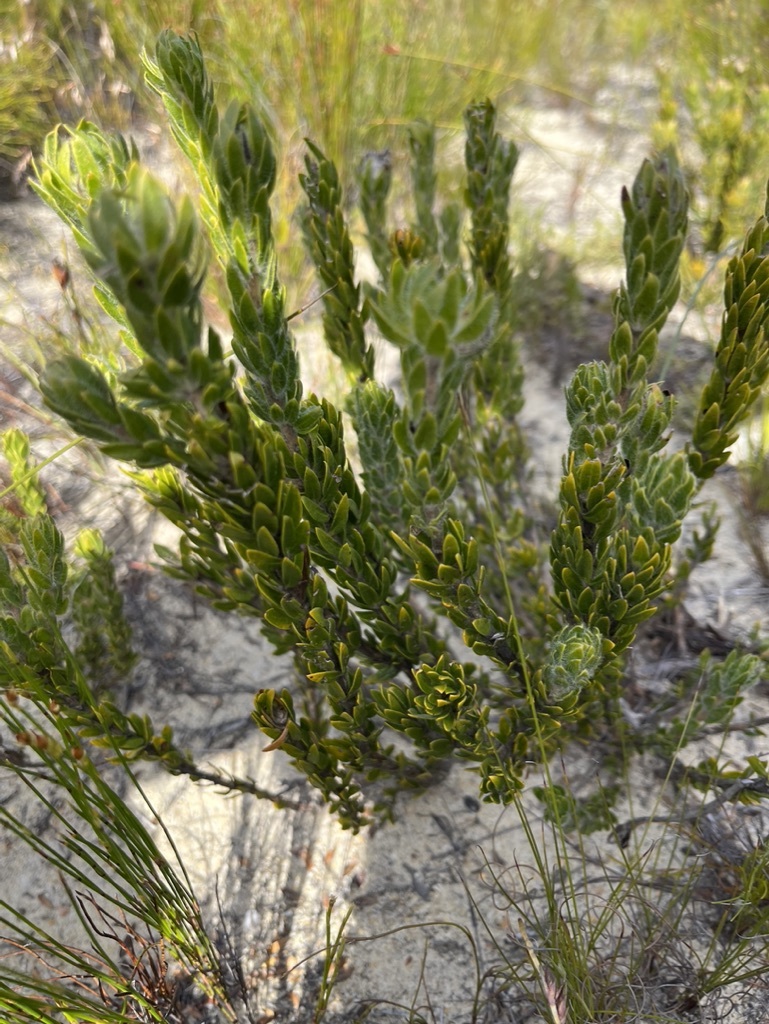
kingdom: Plantae
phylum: Tracheophyta
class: Magnoliopsida
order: Fabales
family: Fabaceae
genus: Aspalathus
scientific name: Aspalathus aspalathoides
